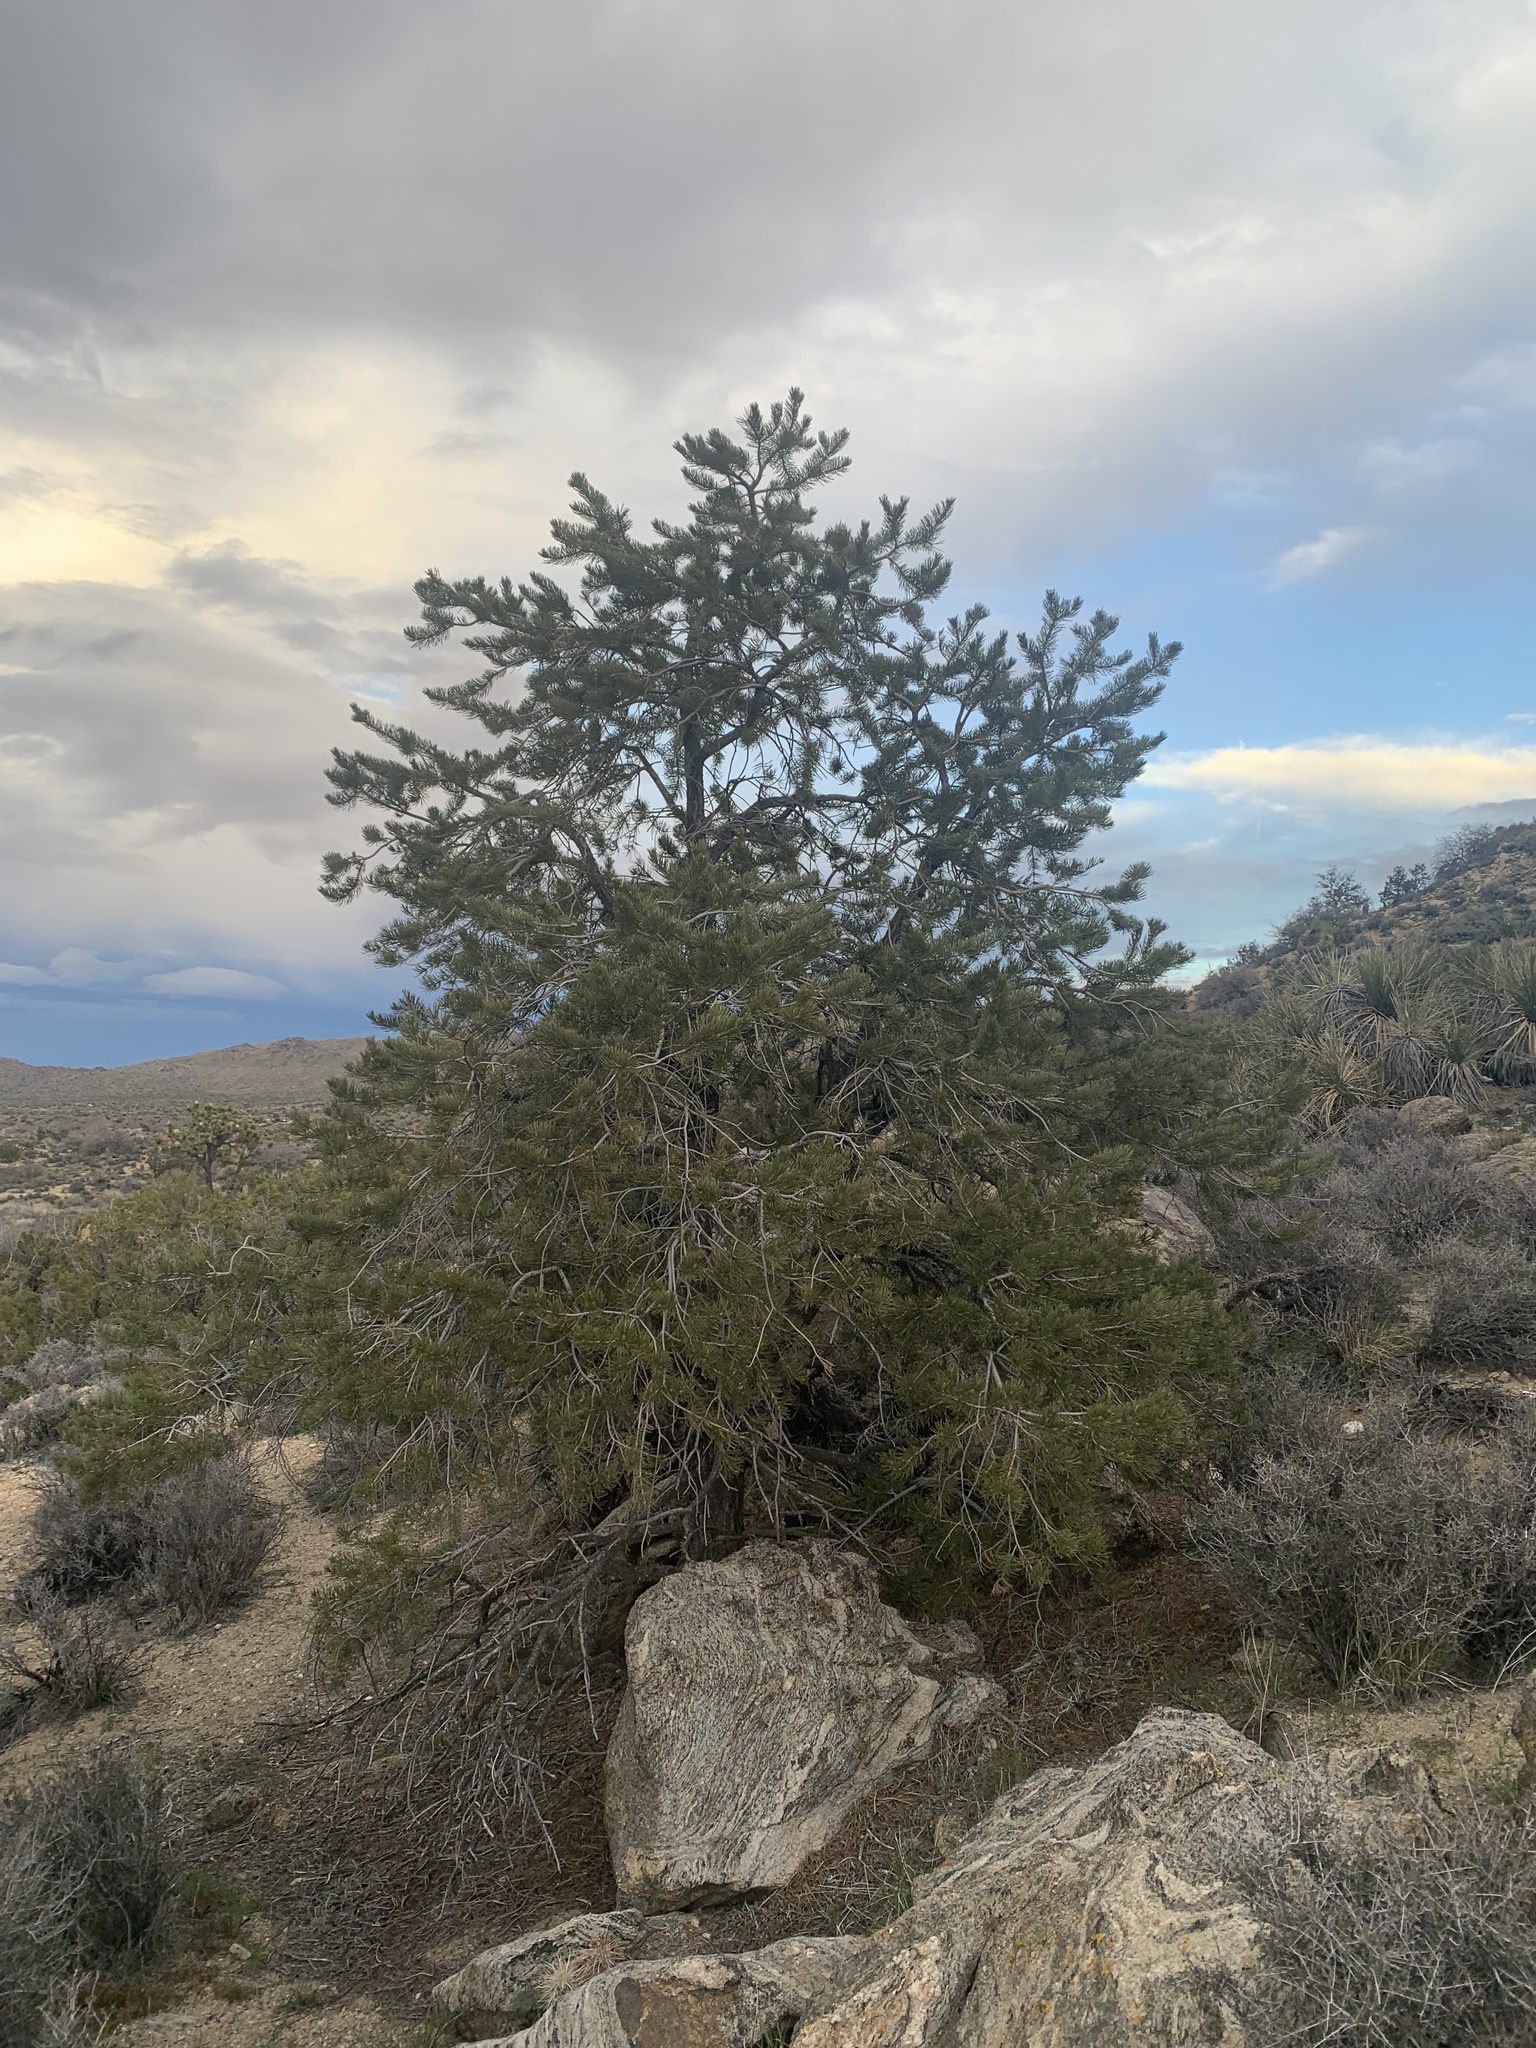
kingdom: Plantae
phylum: Tracheophyta
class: Pinopsida
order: Pinales
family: Pinaceae
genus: Pinus
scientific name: Pinus monophylla
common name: One-leaved nut pine
